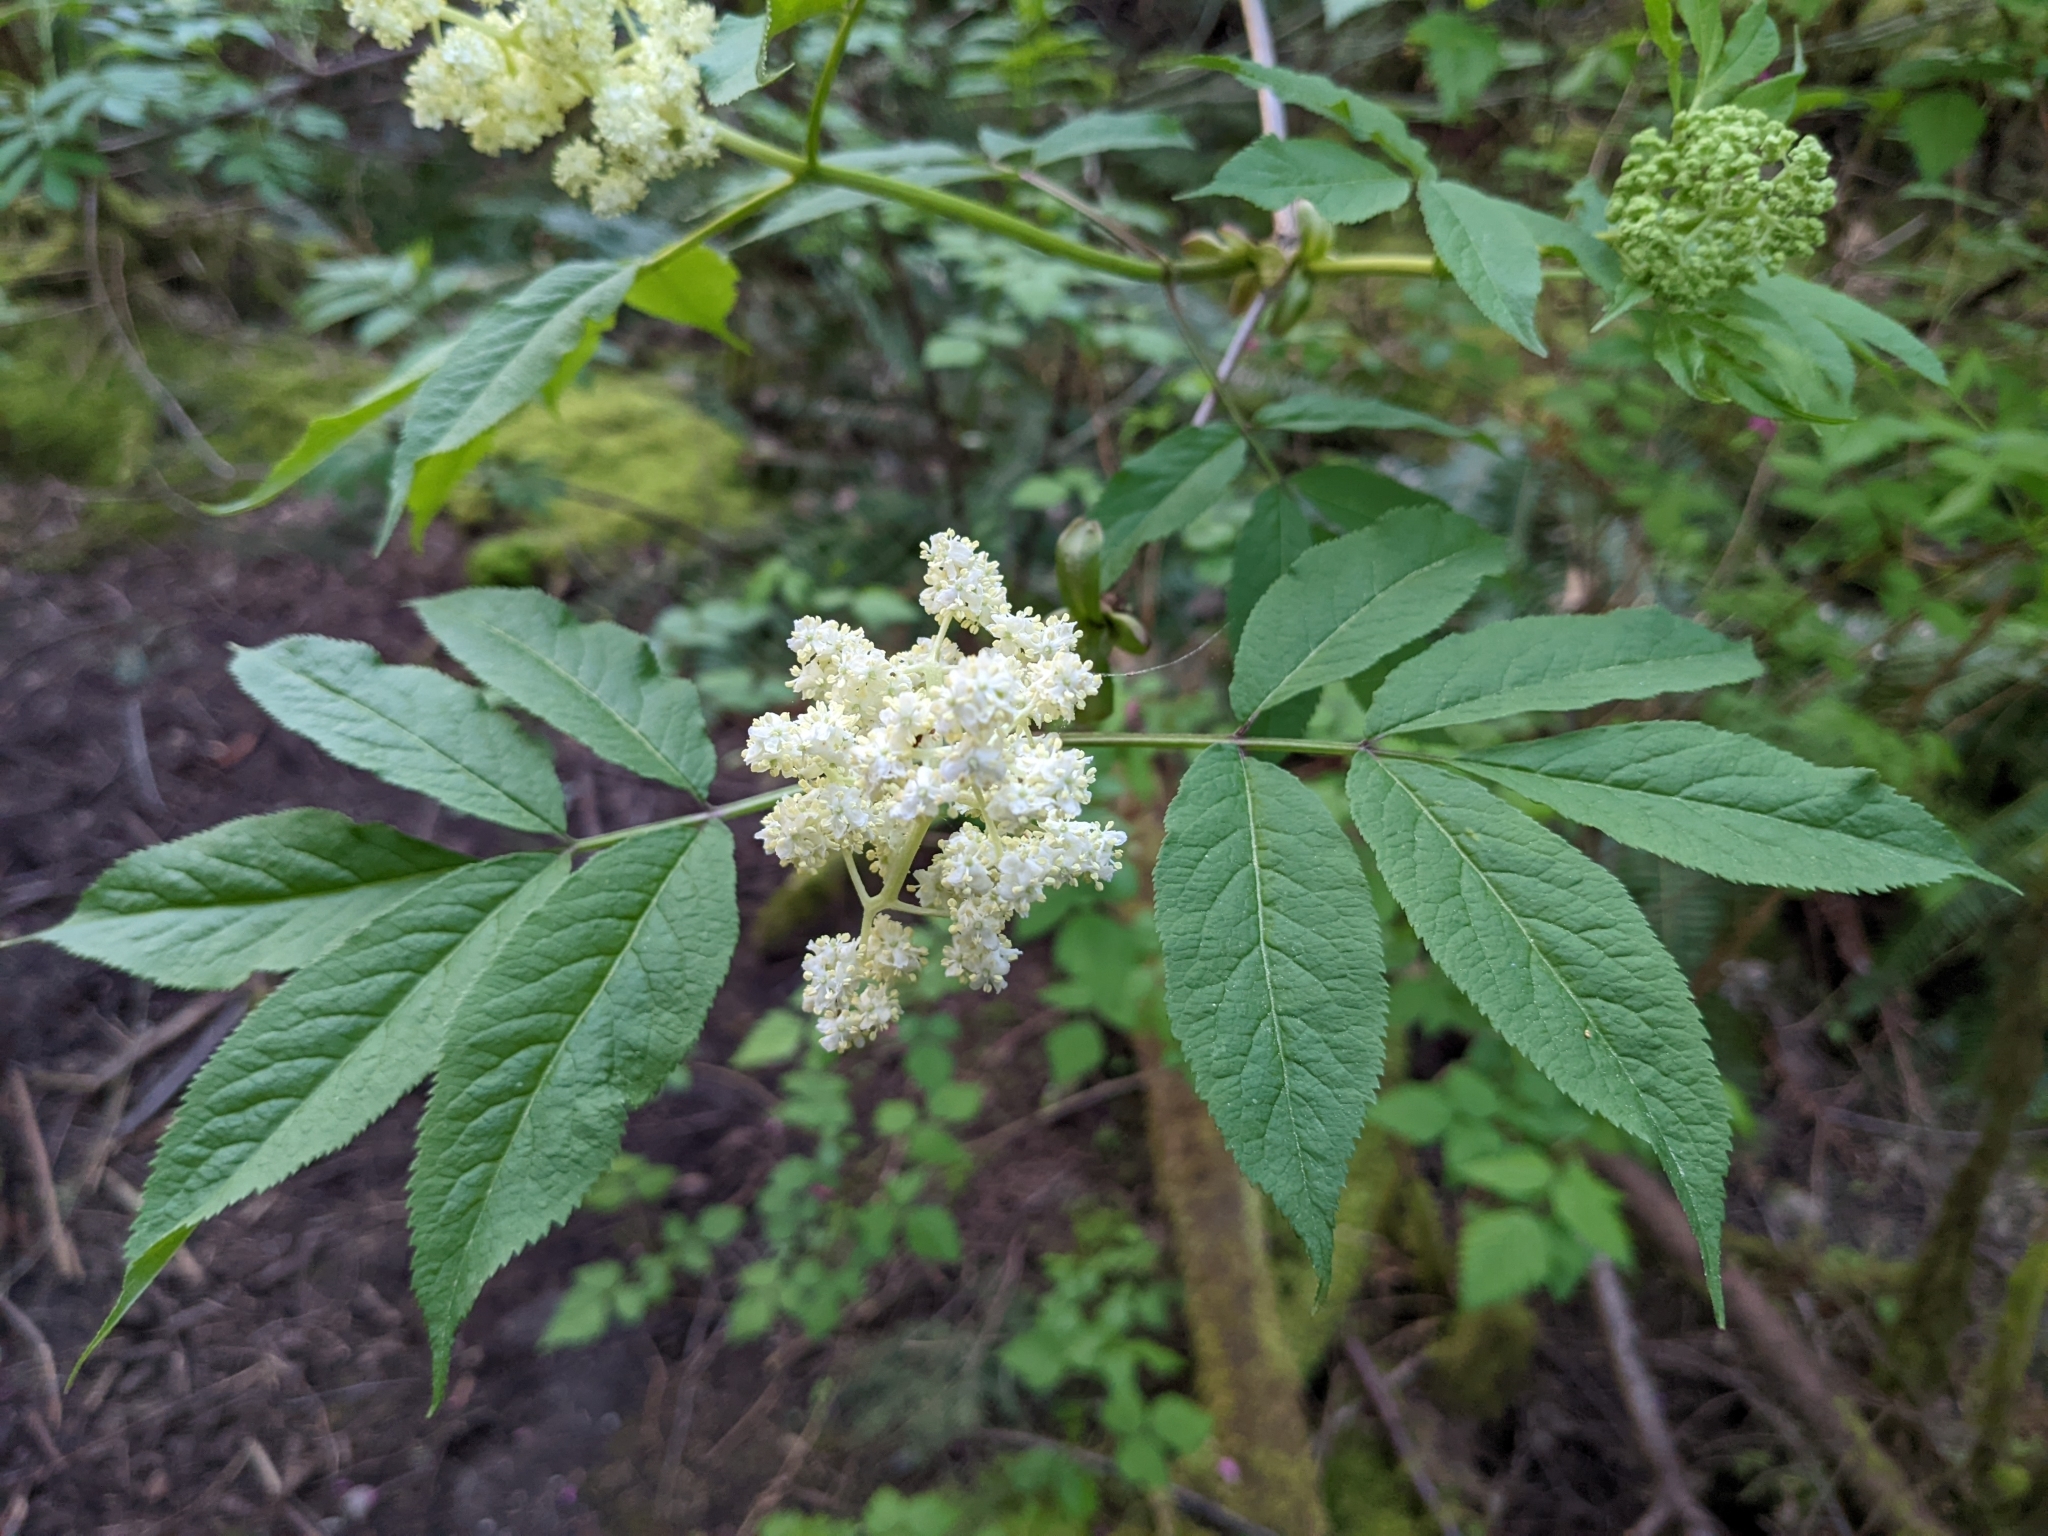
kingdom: Plantae
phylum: Tracheophyta
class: Magnoliopsida
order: Dipsacales
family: Viburnaceae
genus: Sambucus
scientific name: Sambucus racemosa
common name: Red-berried elder
